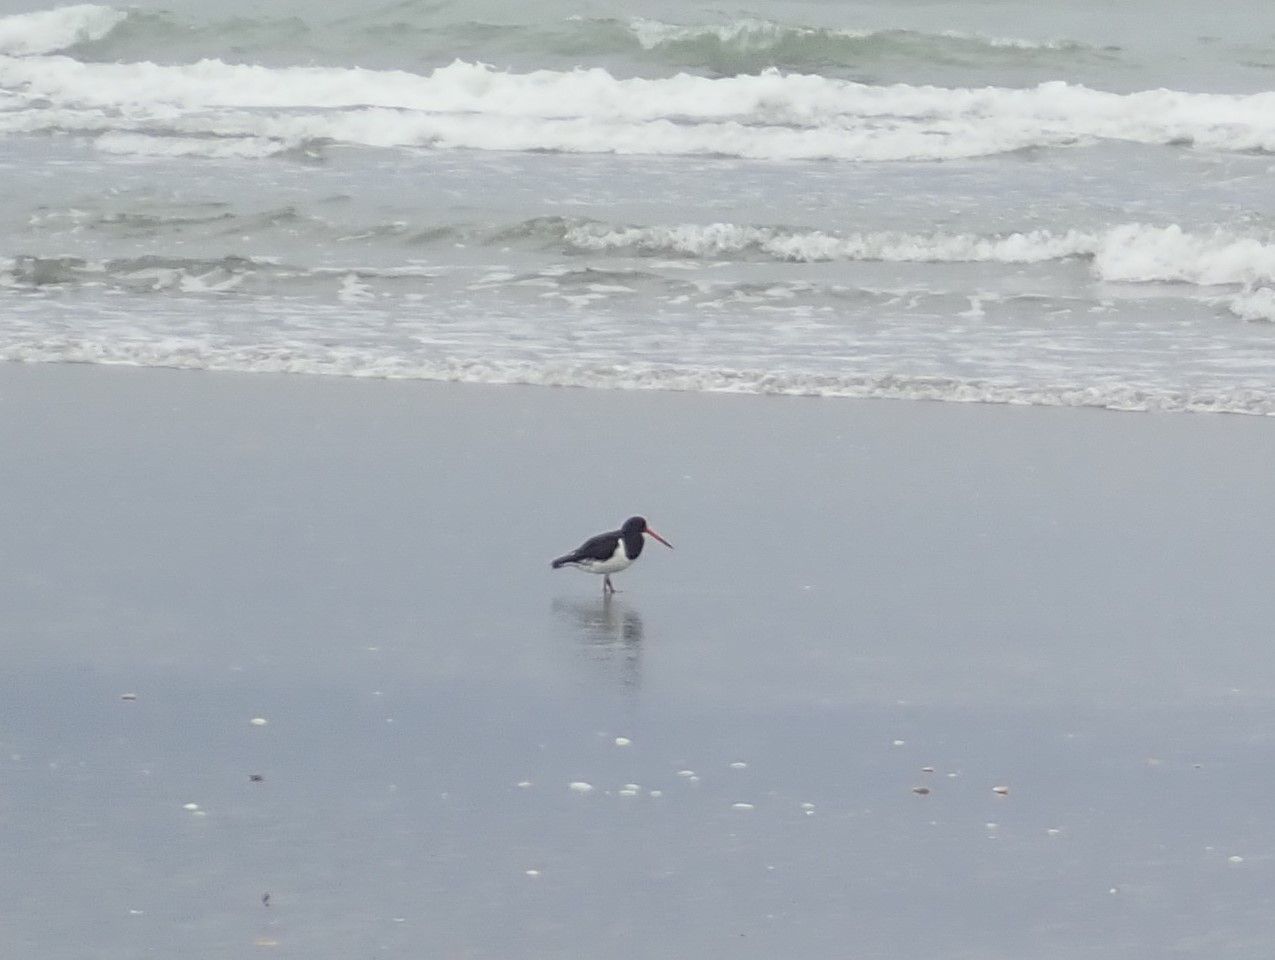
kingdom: Animalia
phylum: Chordata
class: Aves
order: Charadriiformes
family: Haematopodidae
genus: Haematopus
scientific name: Haematopus finschi
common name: South island oystercatcher
